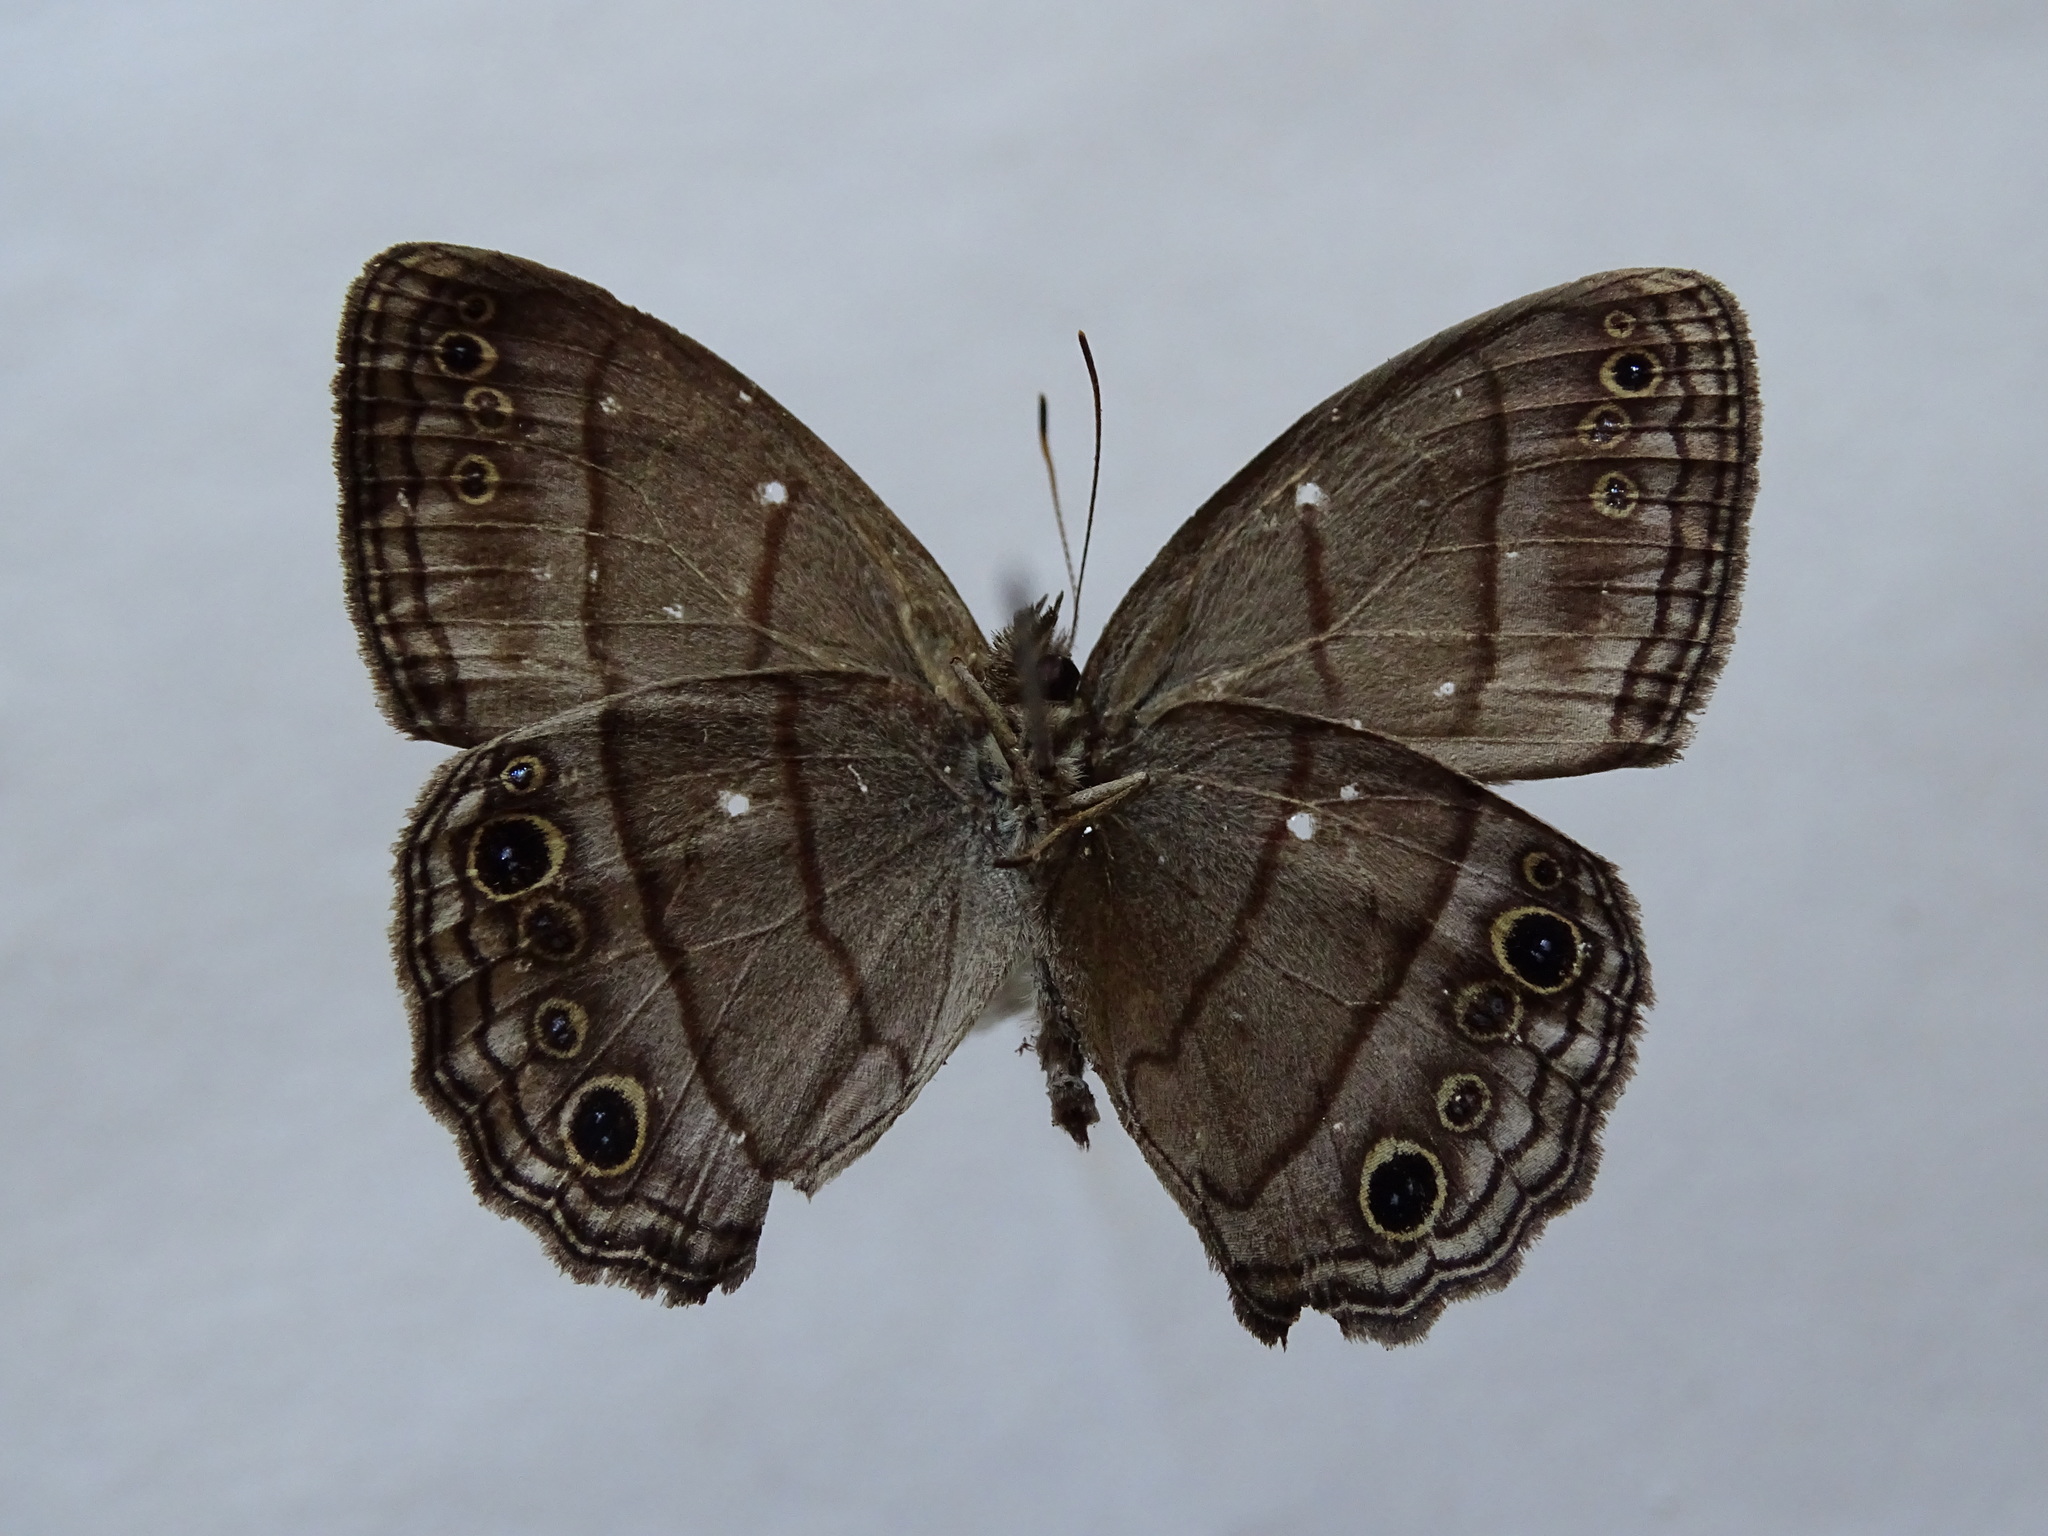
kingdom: Animalia
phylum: Arthropoda
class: Insecta
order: Lepidoptera
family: Nymphalidae
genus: Vareuptychia
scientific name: Vareuptychia similis
